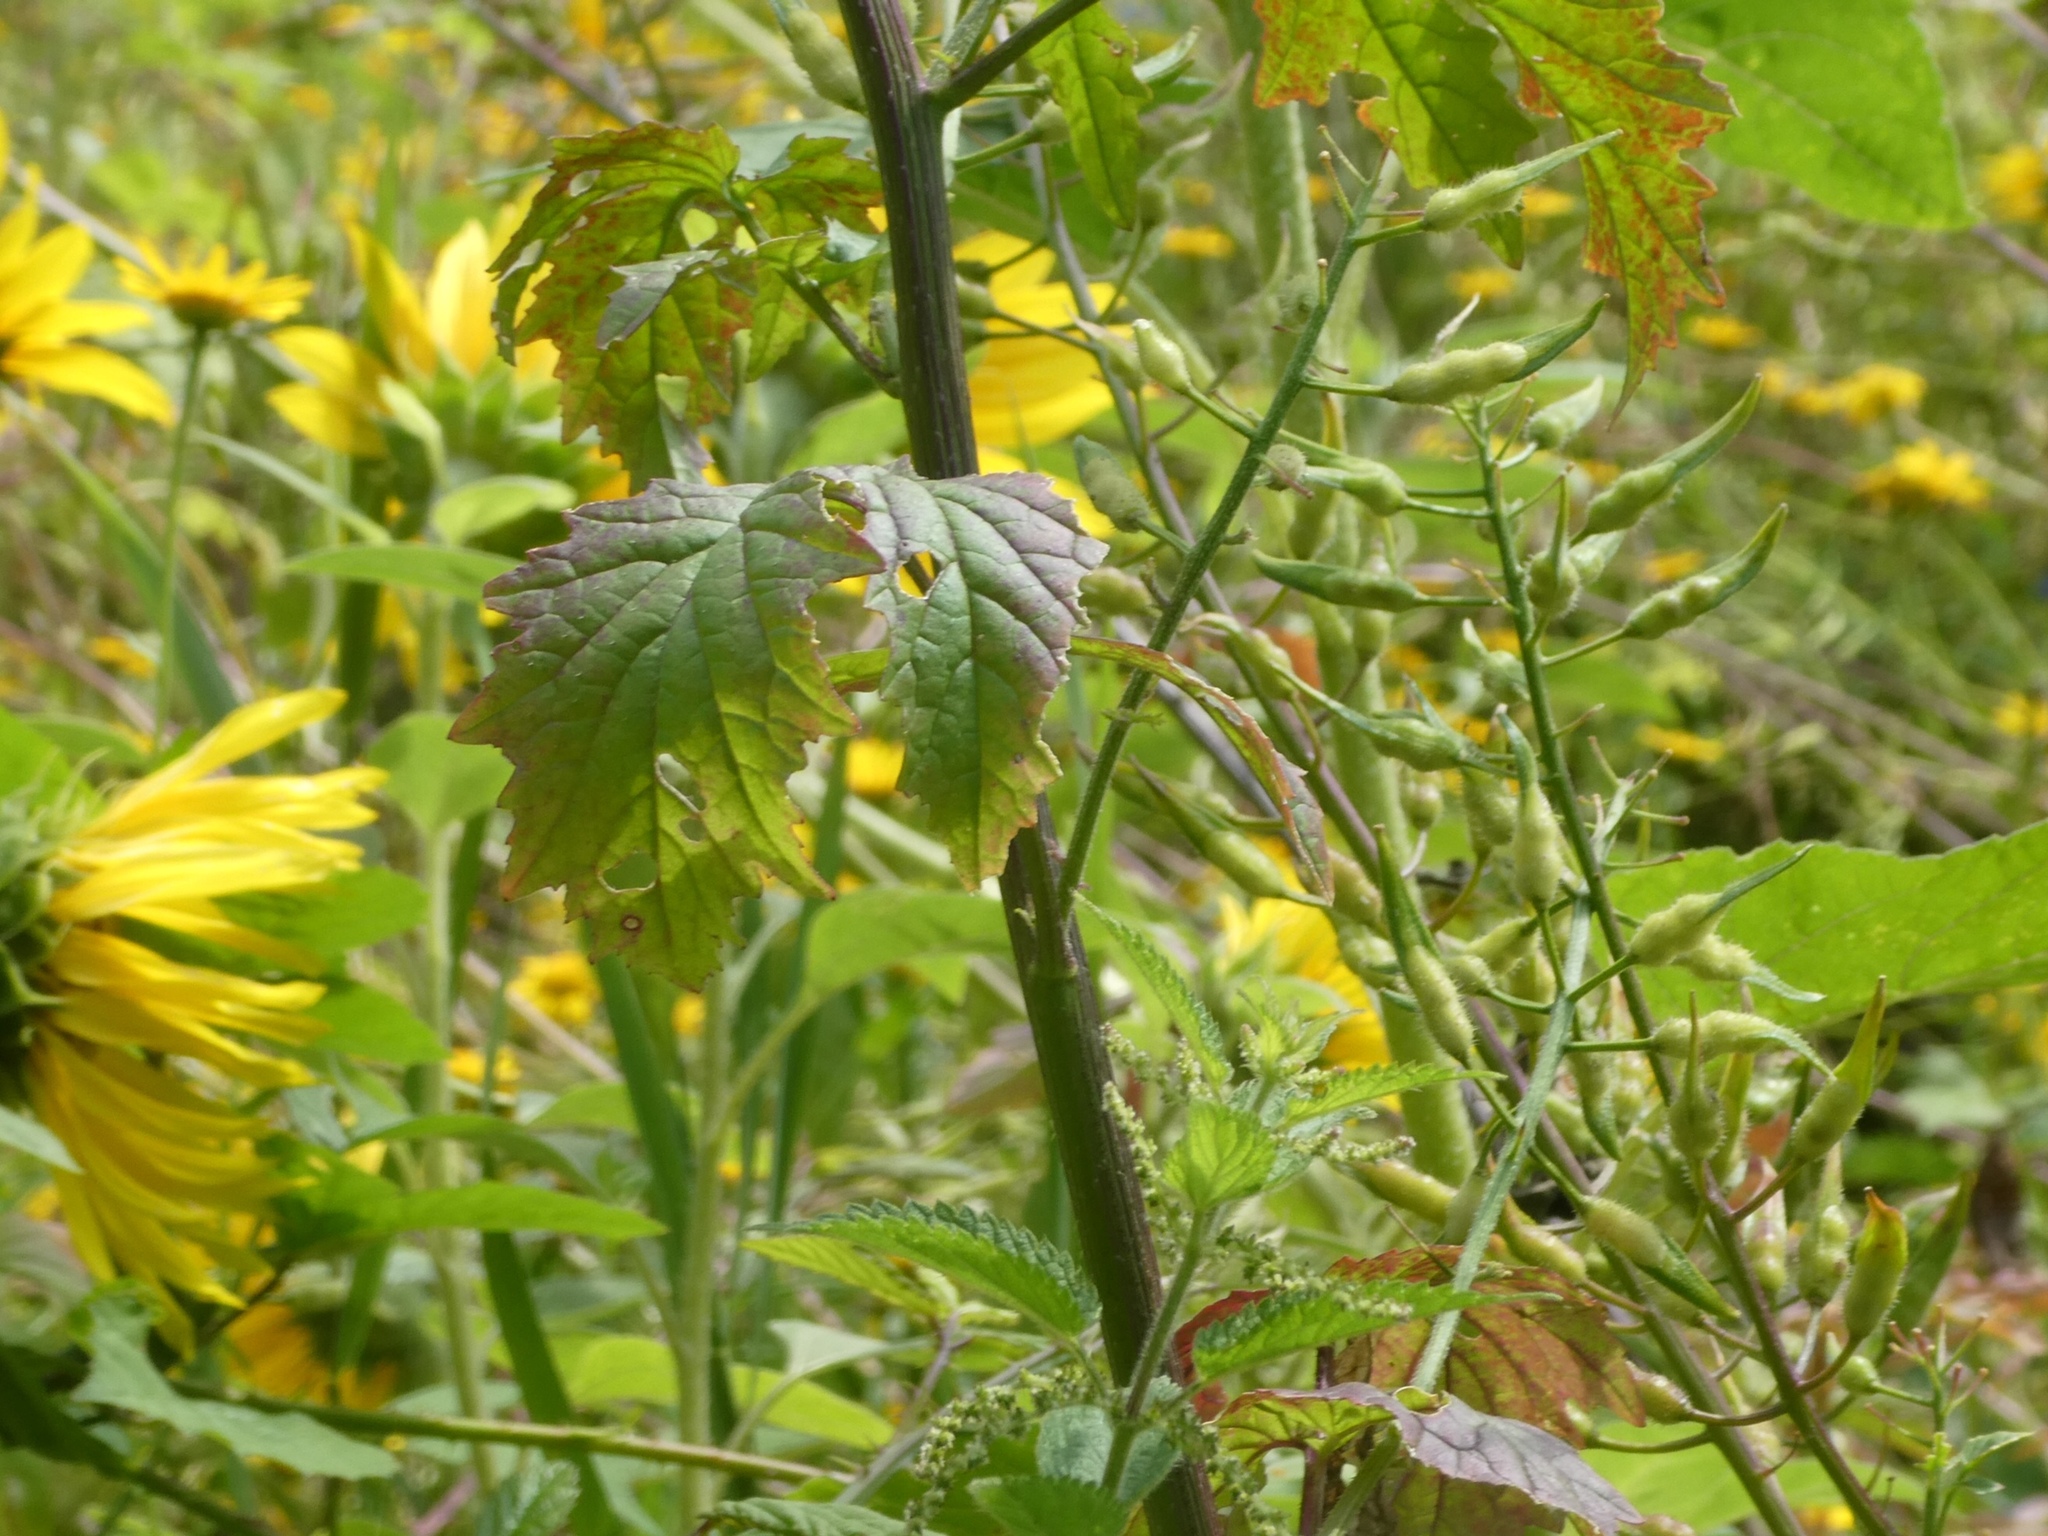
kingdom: Plantae
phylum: Tracheophyta
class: Magnoliopsida
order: Brassicales
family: Brassicaceae
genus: Sinapis
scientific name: Sinapis alba
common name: White mustard
